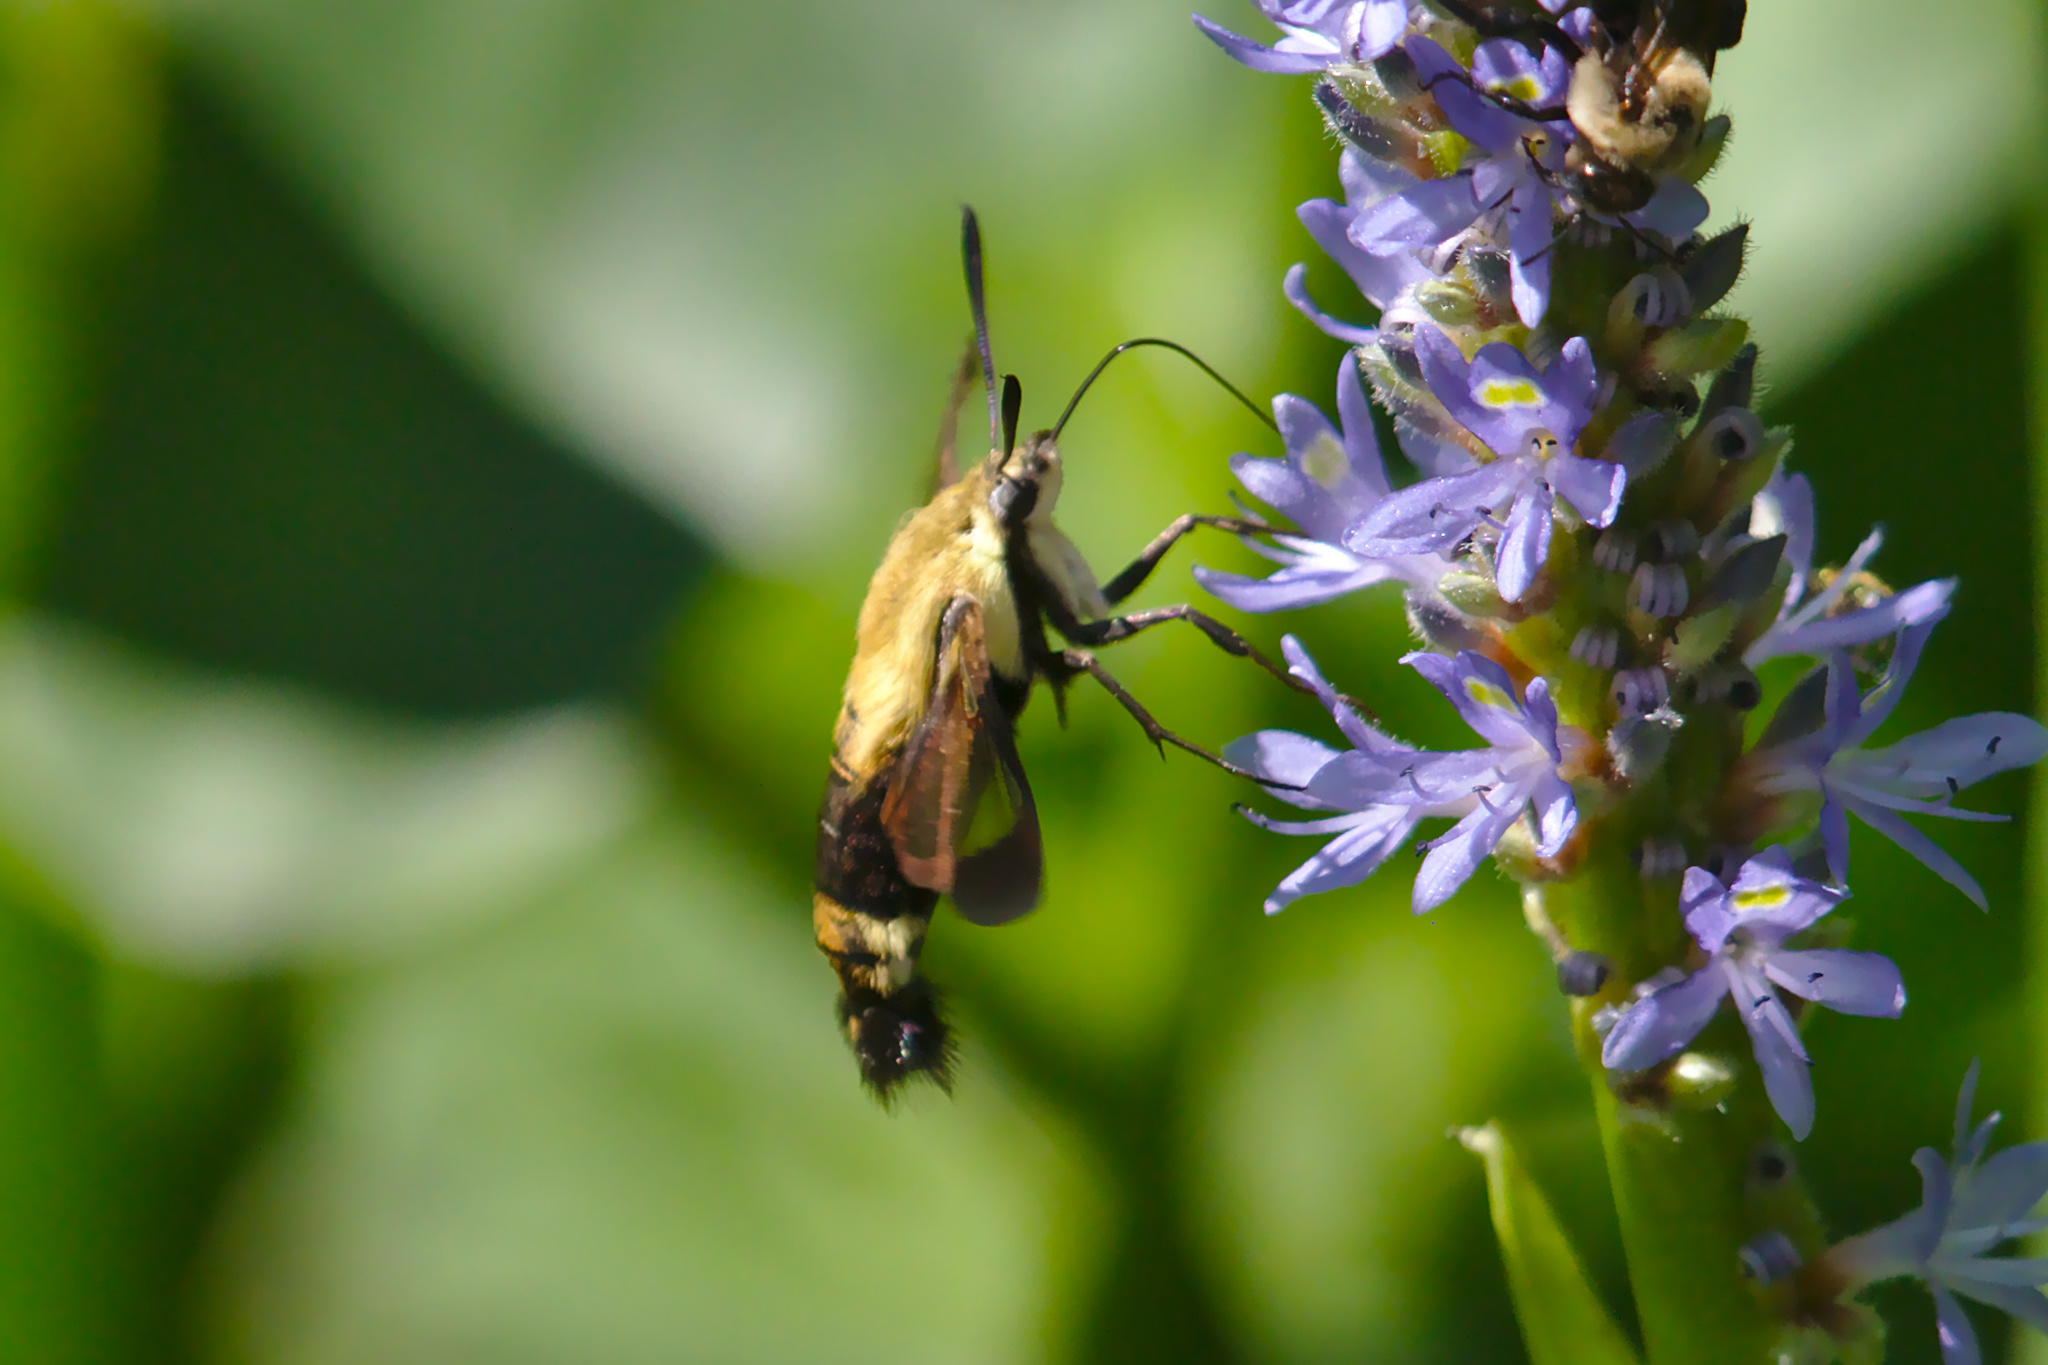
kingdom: Animalia
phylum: Arthropoda
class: Insecta
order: Lepidoptera
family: Sphingidae
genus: Hemaris
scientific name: Hemaris diffinis
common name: Bumblebee moth
